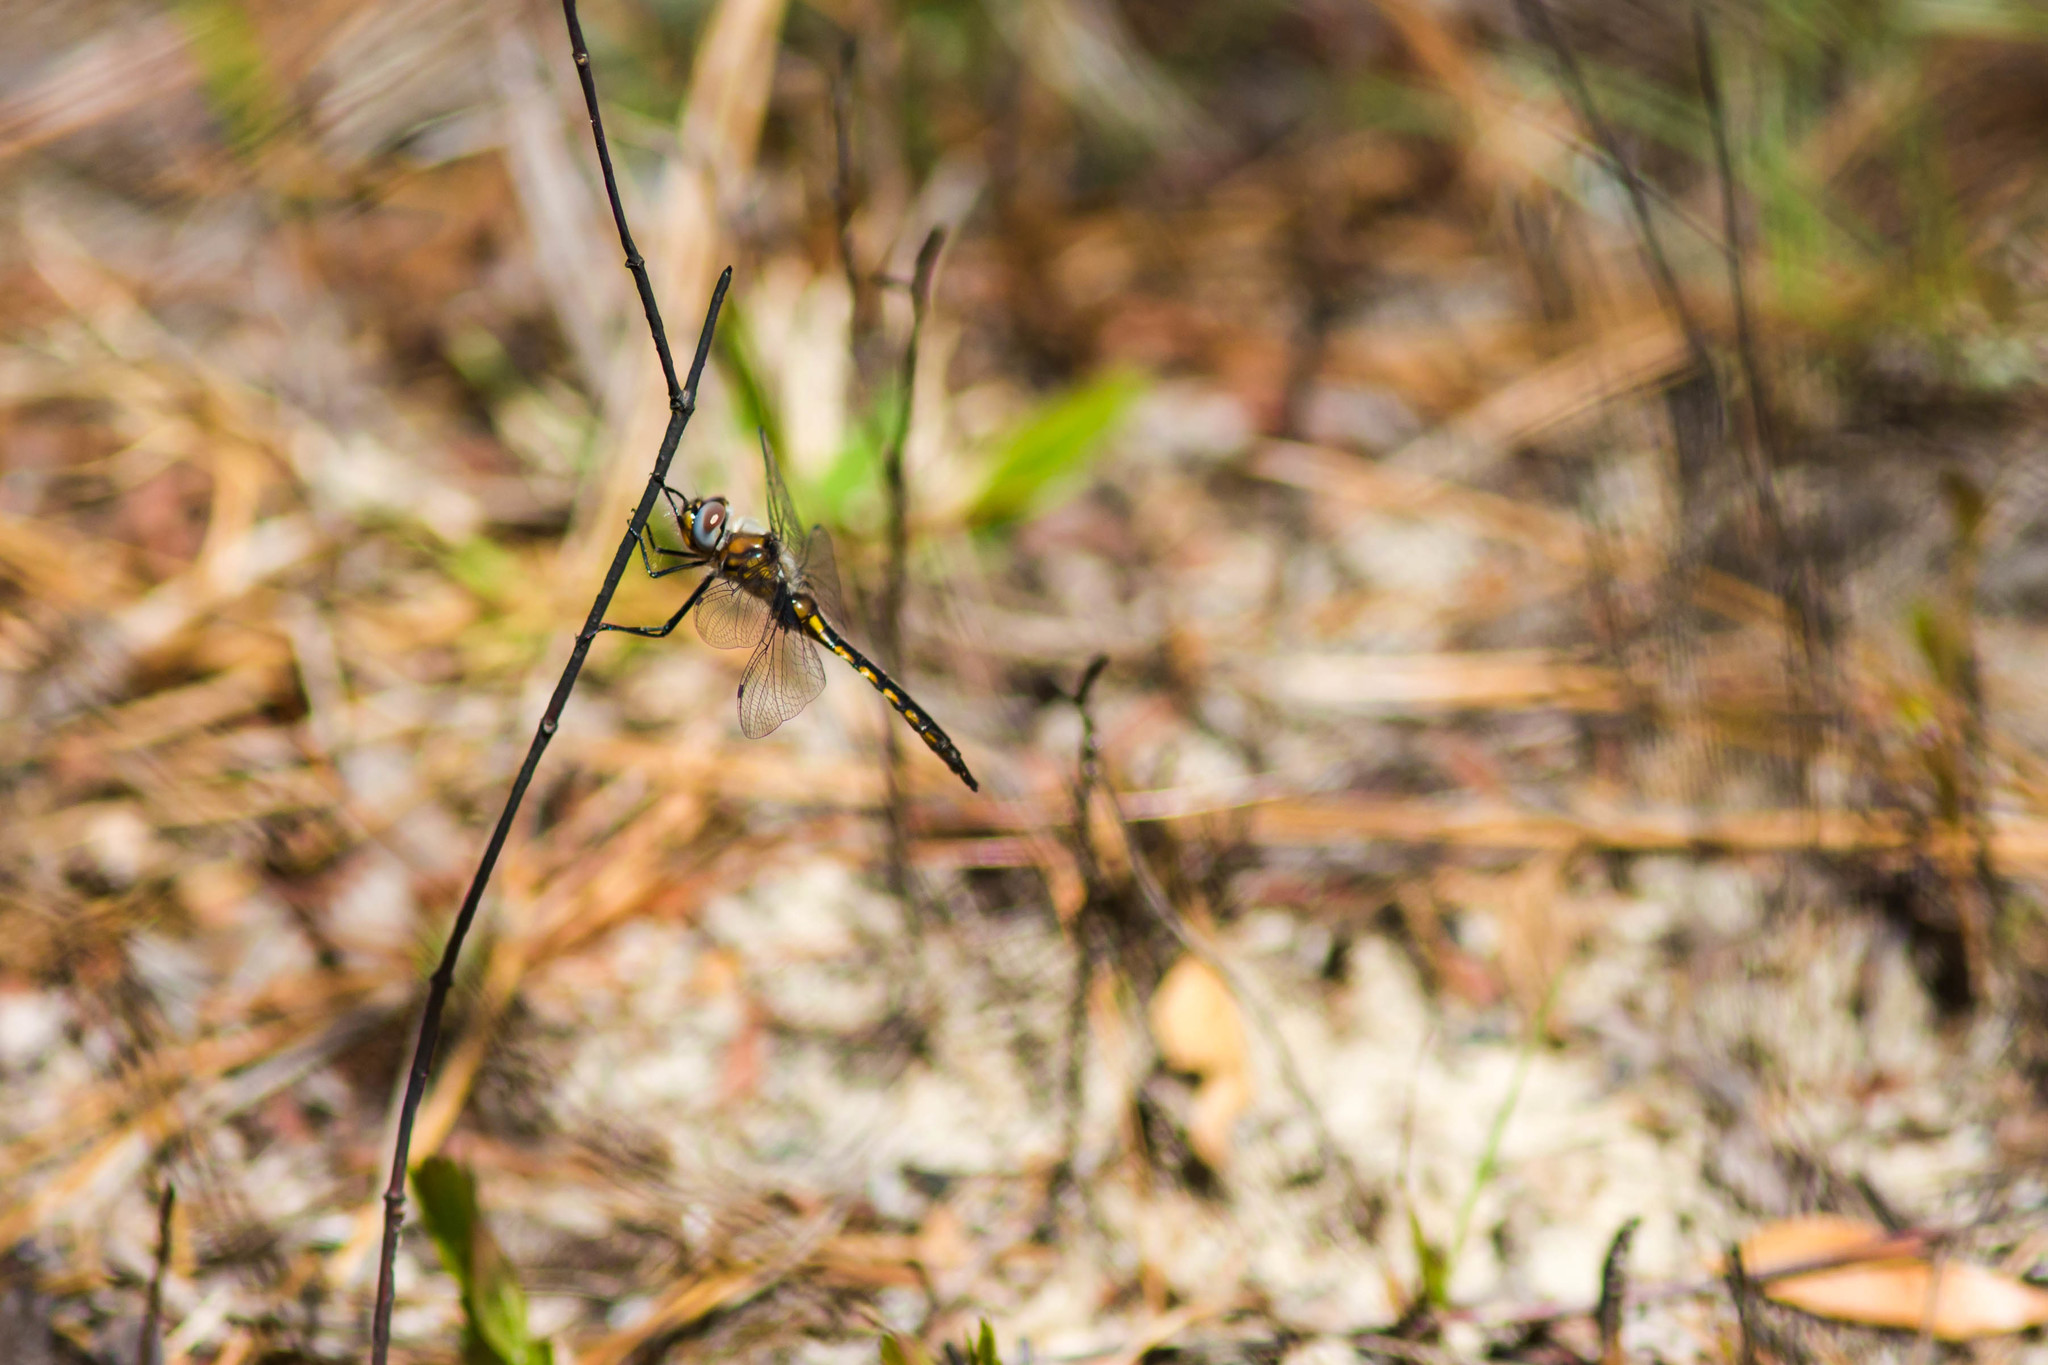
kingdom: Animalia
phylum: Arthropoda
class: Insecta
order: Odonata
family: Corduliidae
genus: Epitheca
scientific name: Epitheca costalis
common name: Slender baskettail
